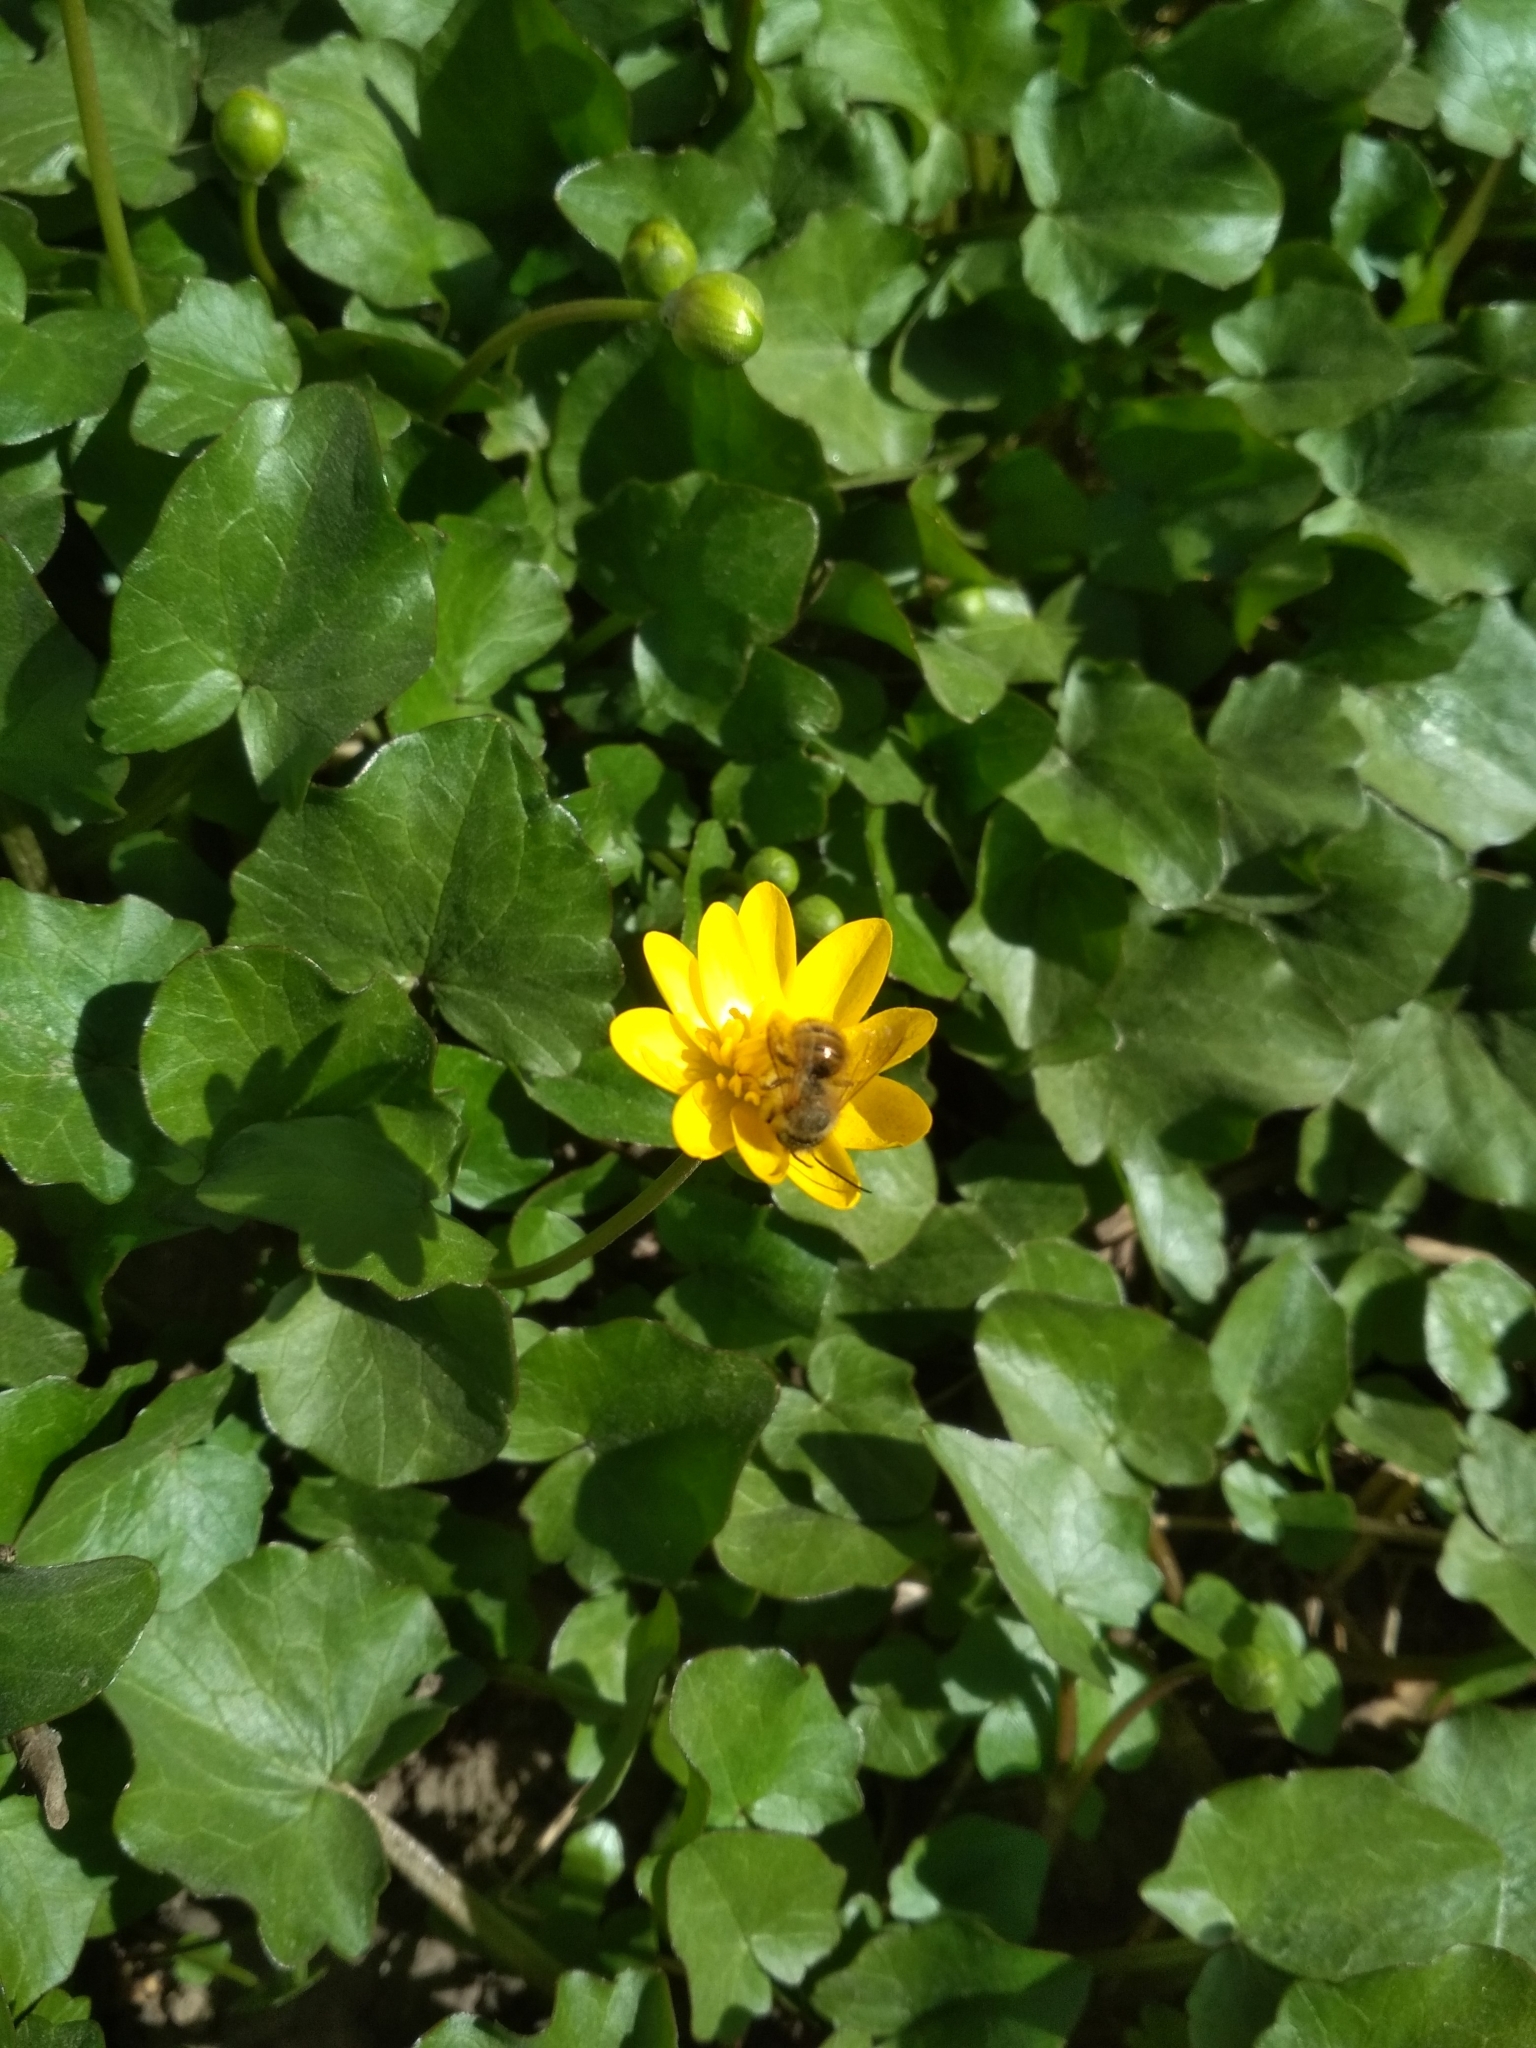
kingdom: Plantae
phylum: Tracheophyta
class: Magnoliopsida
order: Ranunculales
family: Ranunculaceae
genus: Ficaria
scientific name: Ficaria verna
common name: Lesser celandine
